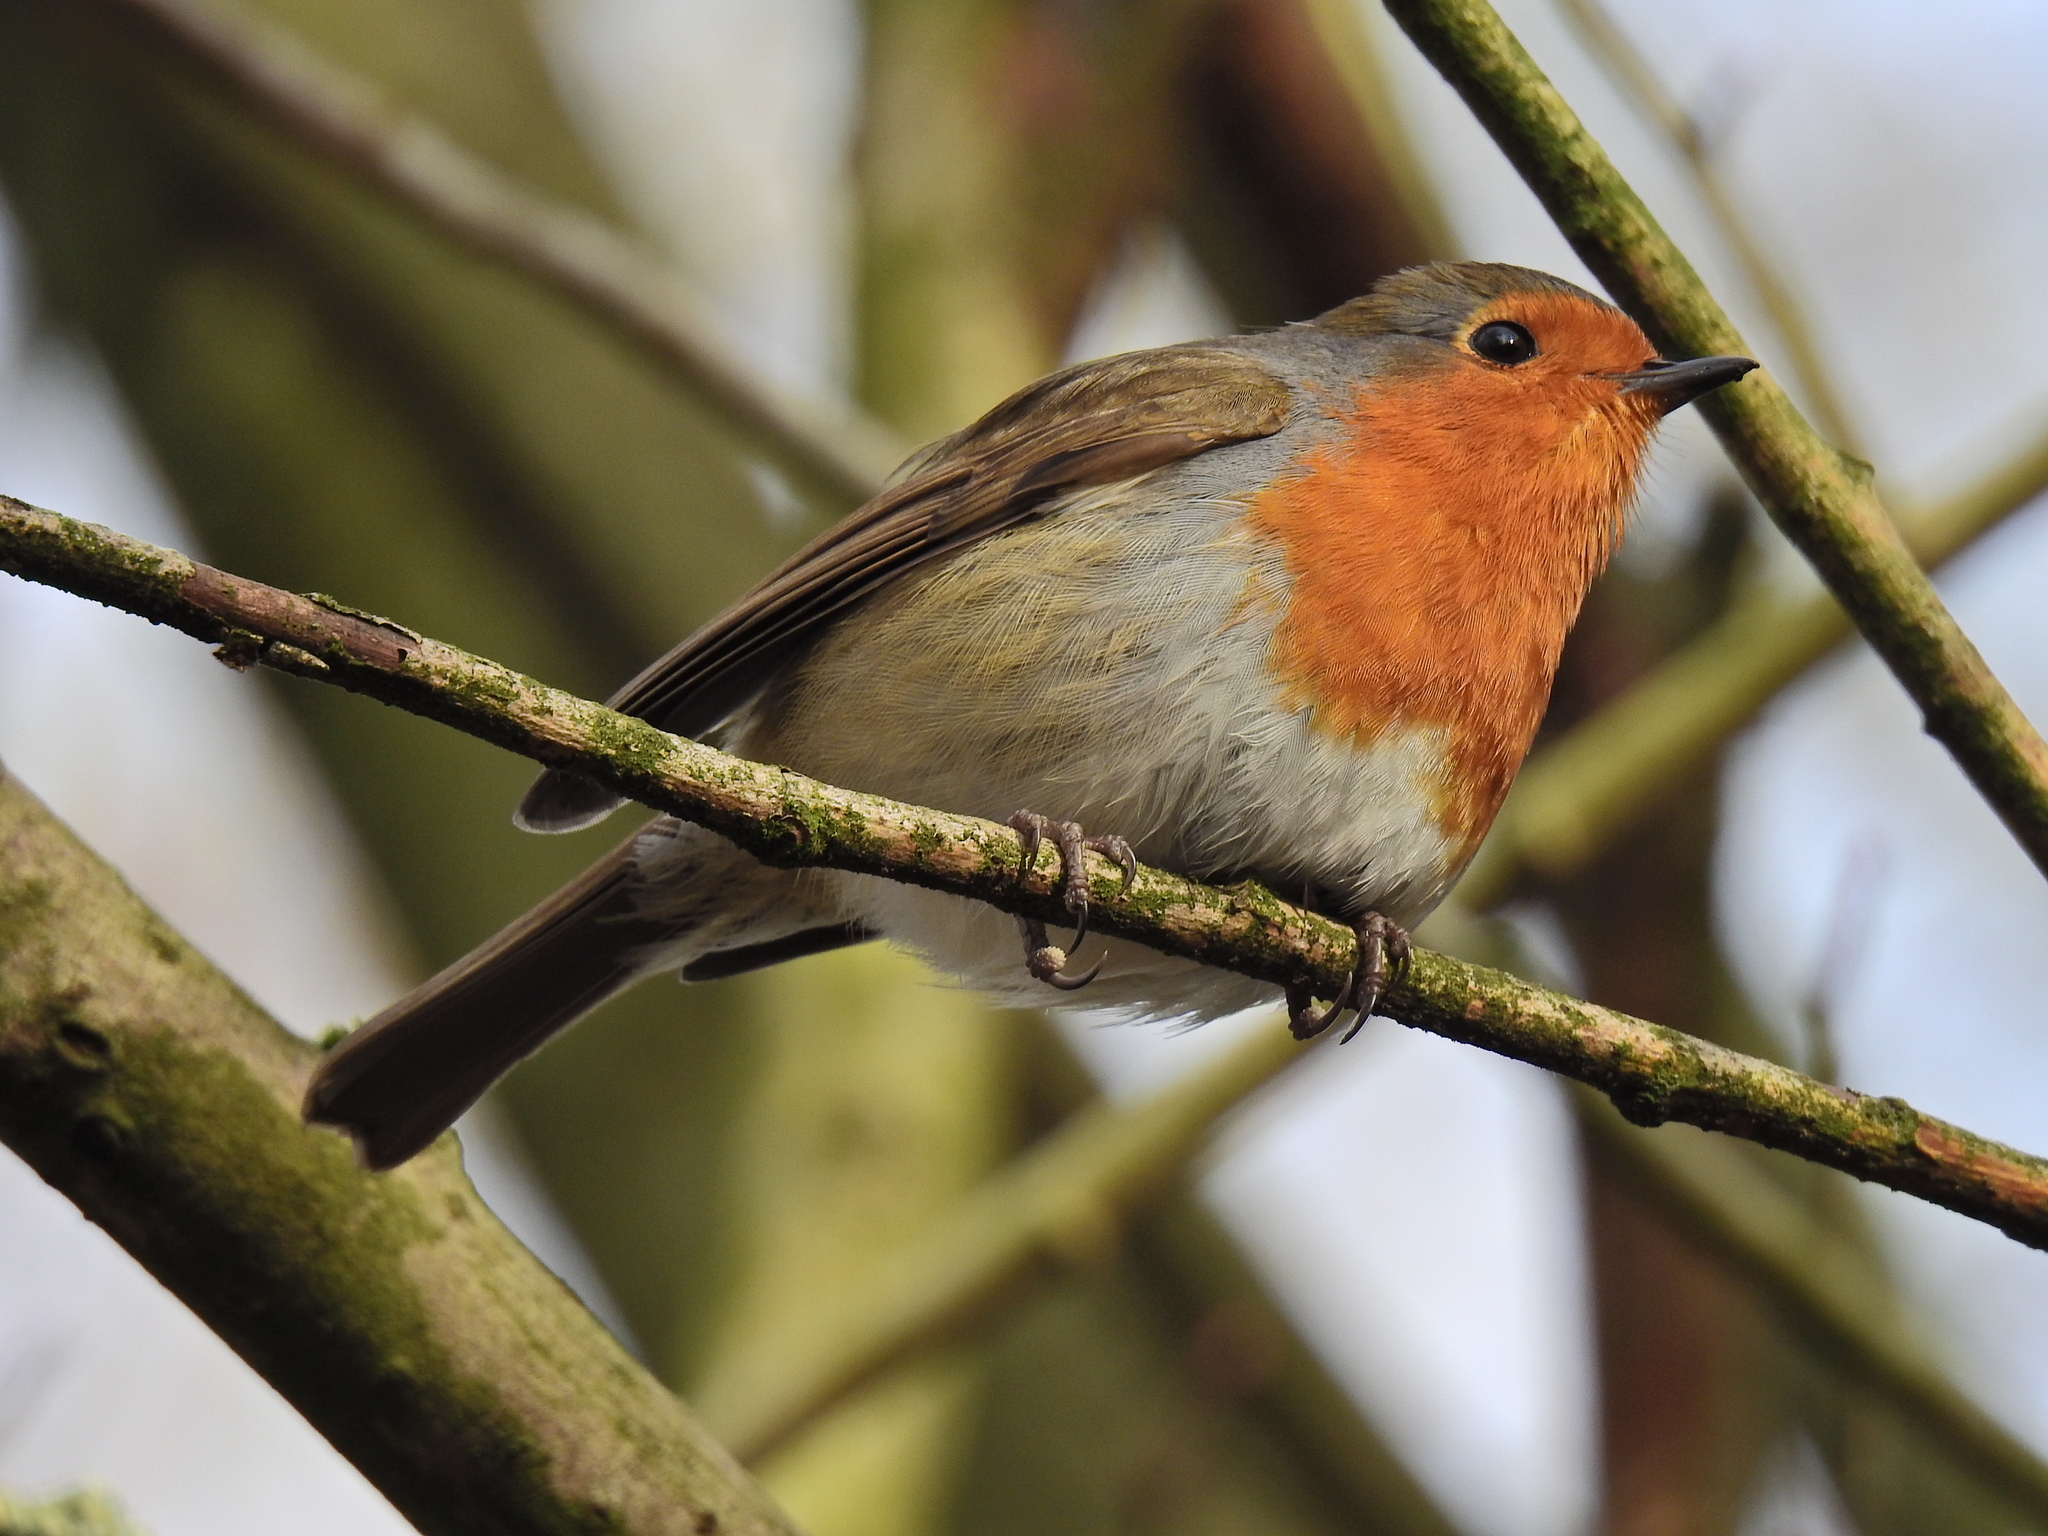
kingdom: Animalia
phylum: Chordata
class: Aves
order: Passeriformes
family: Muscicapidae
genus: Erithacus
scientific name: Erithacus rubecula
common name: European robin
